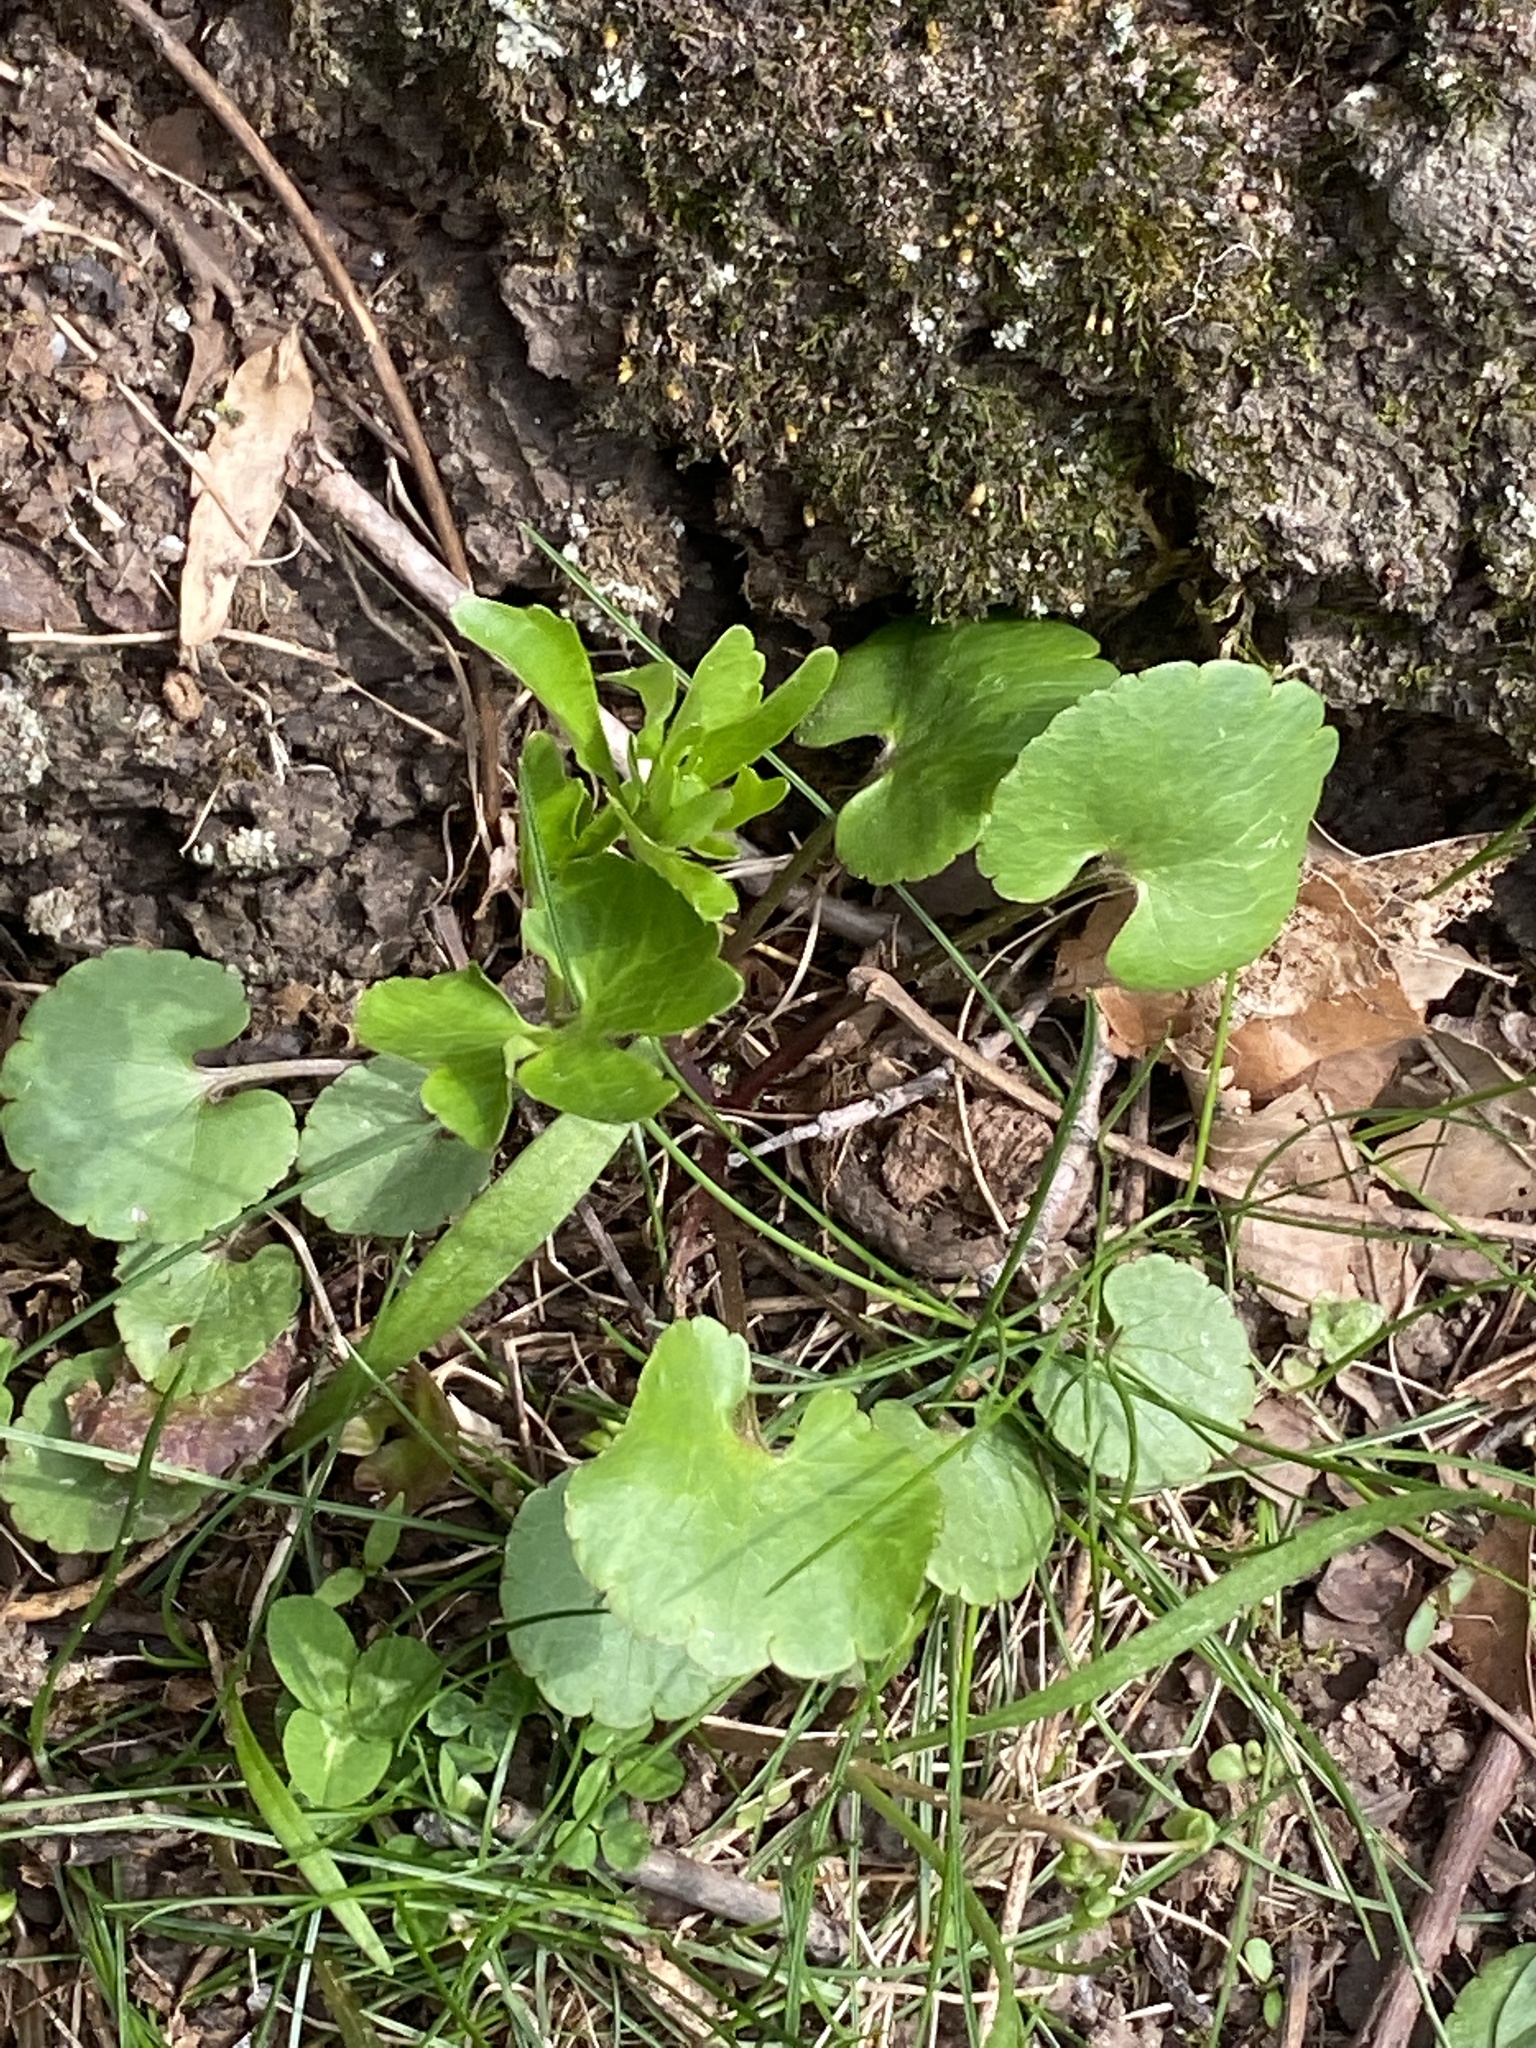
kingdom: Plantae
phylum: Tracheophyta
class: Magnoliopsida
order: Ranunculales
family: Ranunculaceae
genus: Ranunculus
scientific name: Ranunculus abortivus
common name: Early wood buttercup
